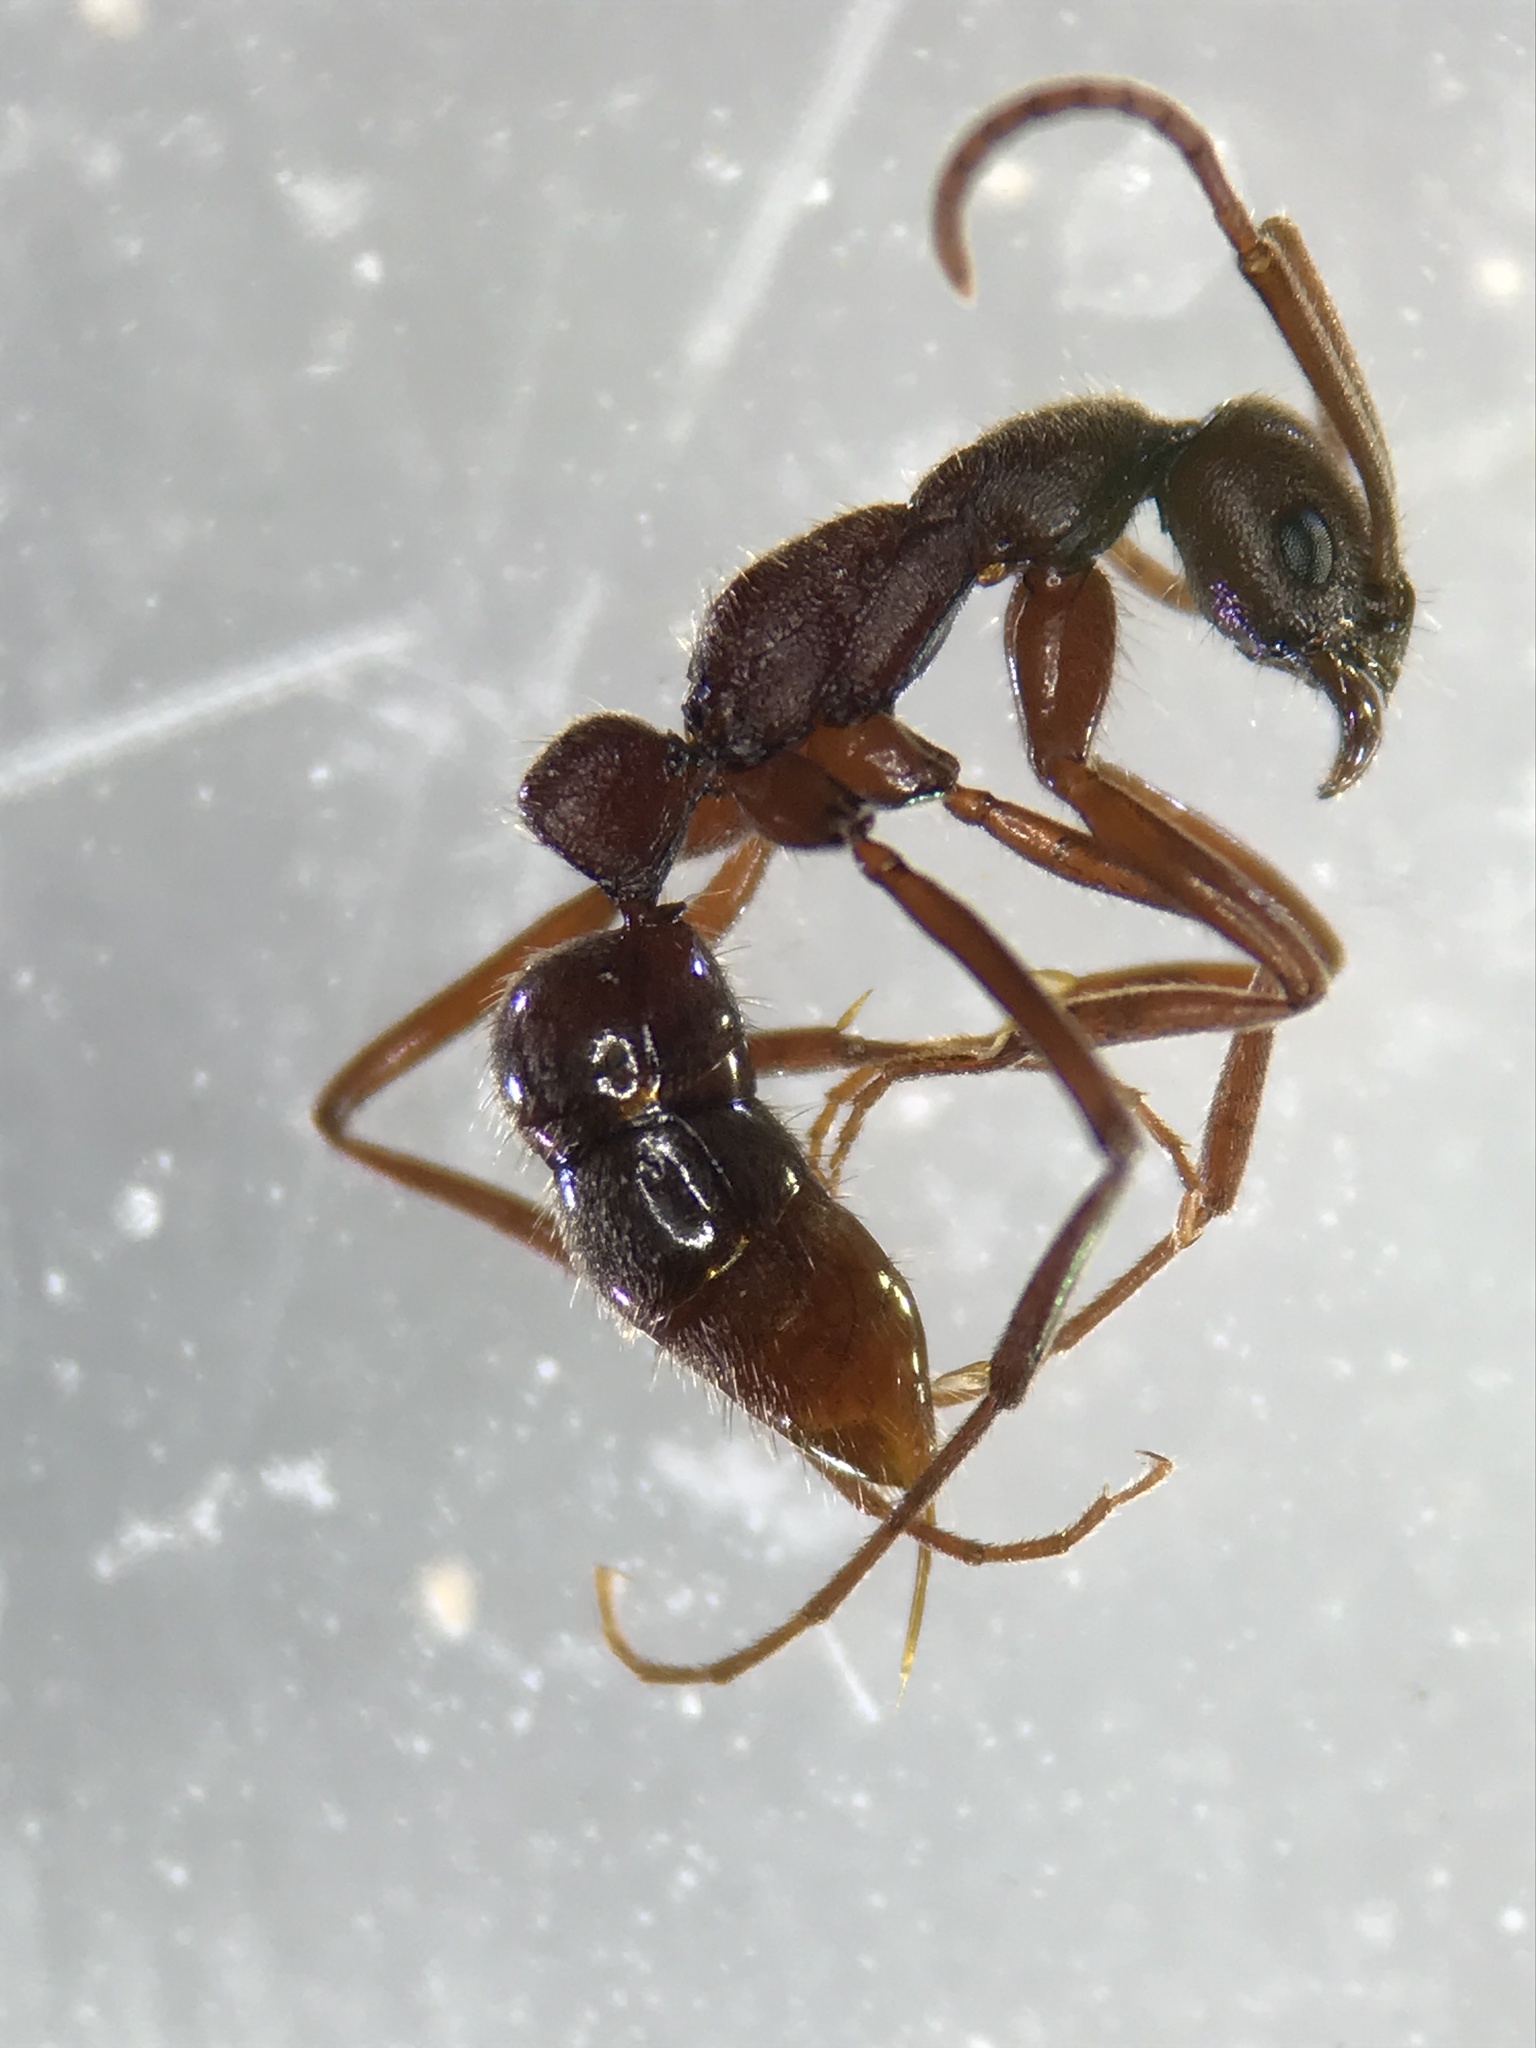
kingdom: Animalia
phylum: Arthropoda
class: Insecta
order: Hymenoptera
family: Formicidae
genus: Leptogenys
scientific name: Leptogenys elongata
